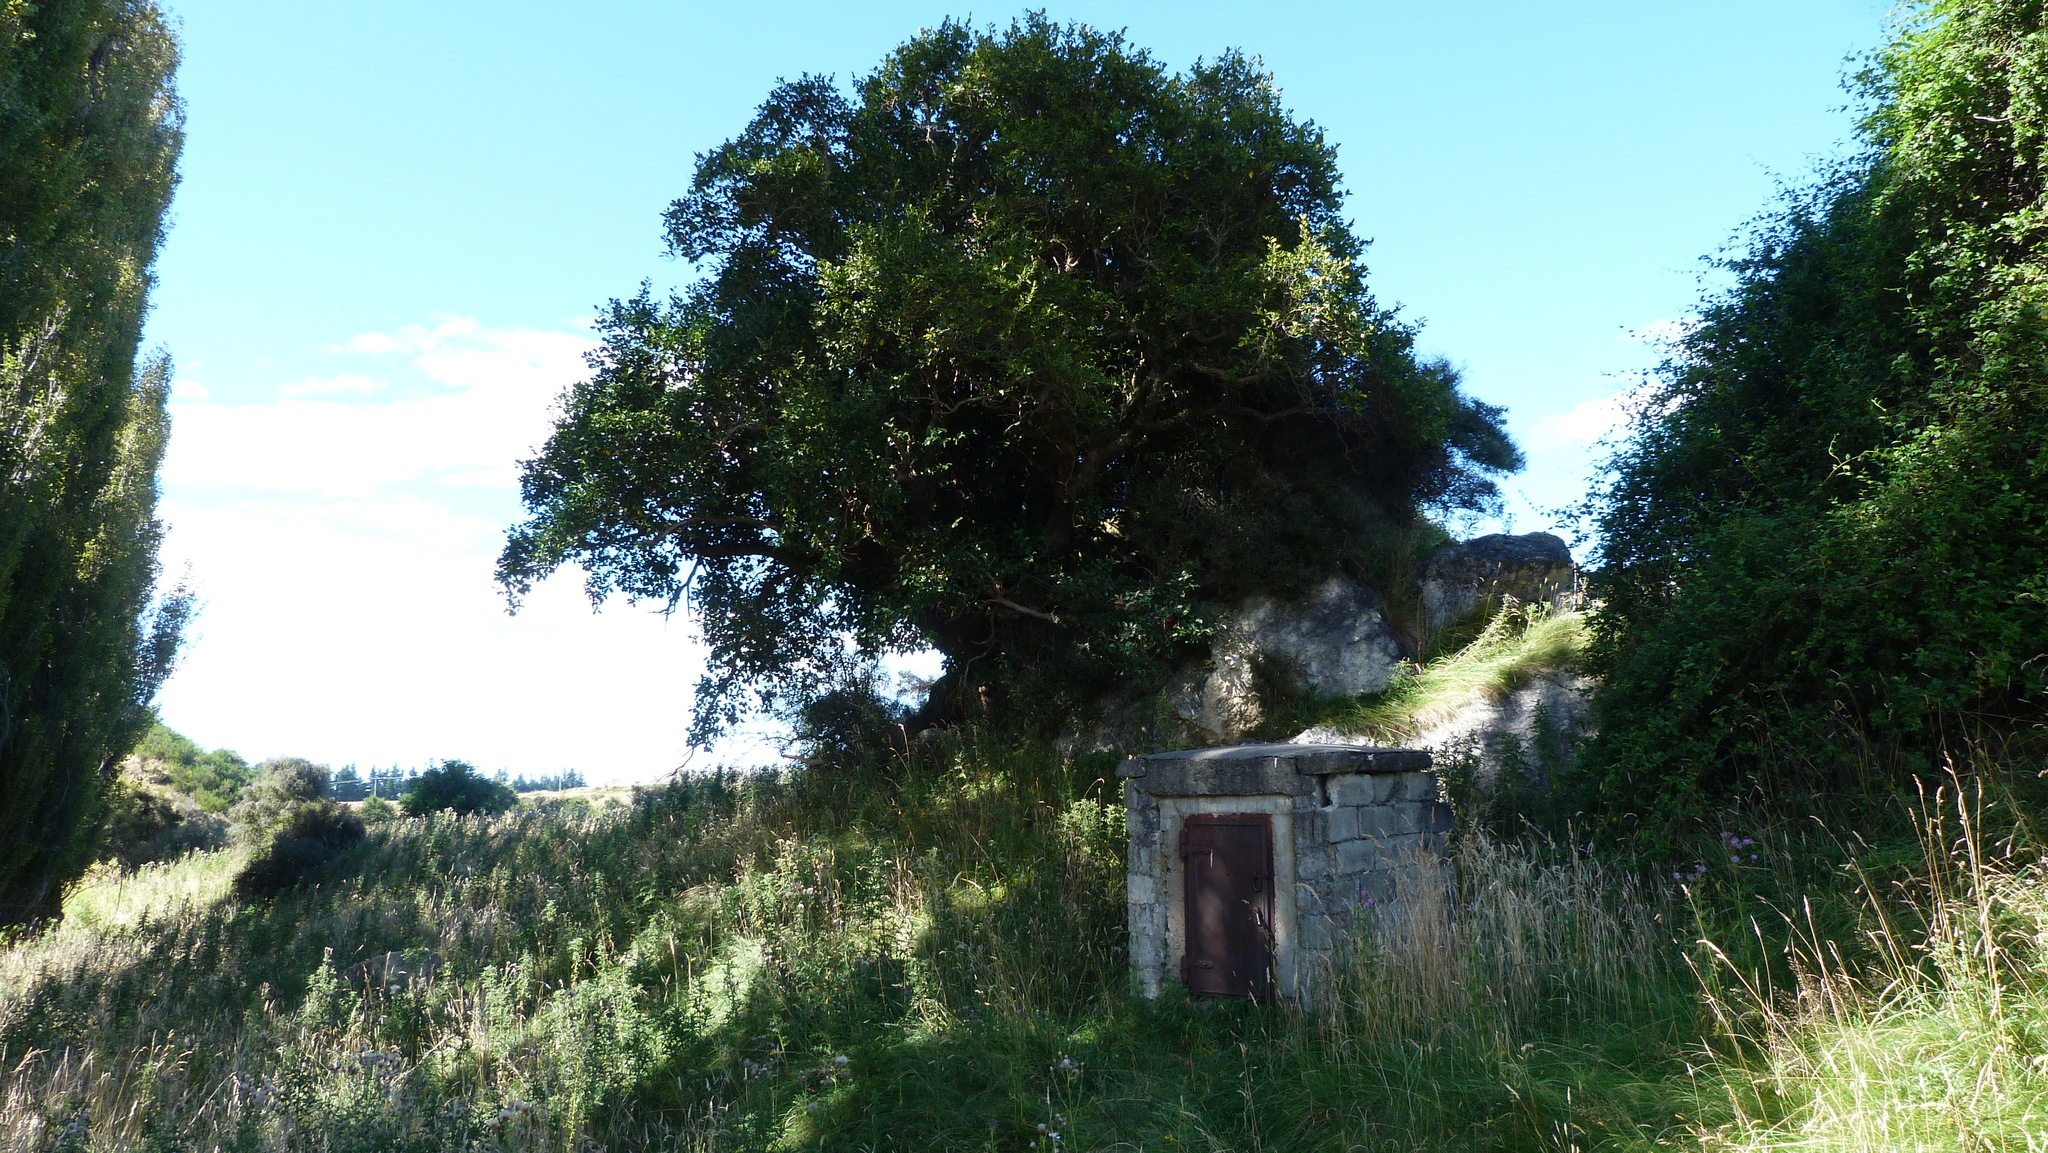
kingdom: Plantae
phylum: Tracheophyta
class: Magnoliopsida
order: Apiales
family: Griseliniaceae
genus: Griselinia
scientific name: Griselinia littoralis
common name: New zealand broadleaf
